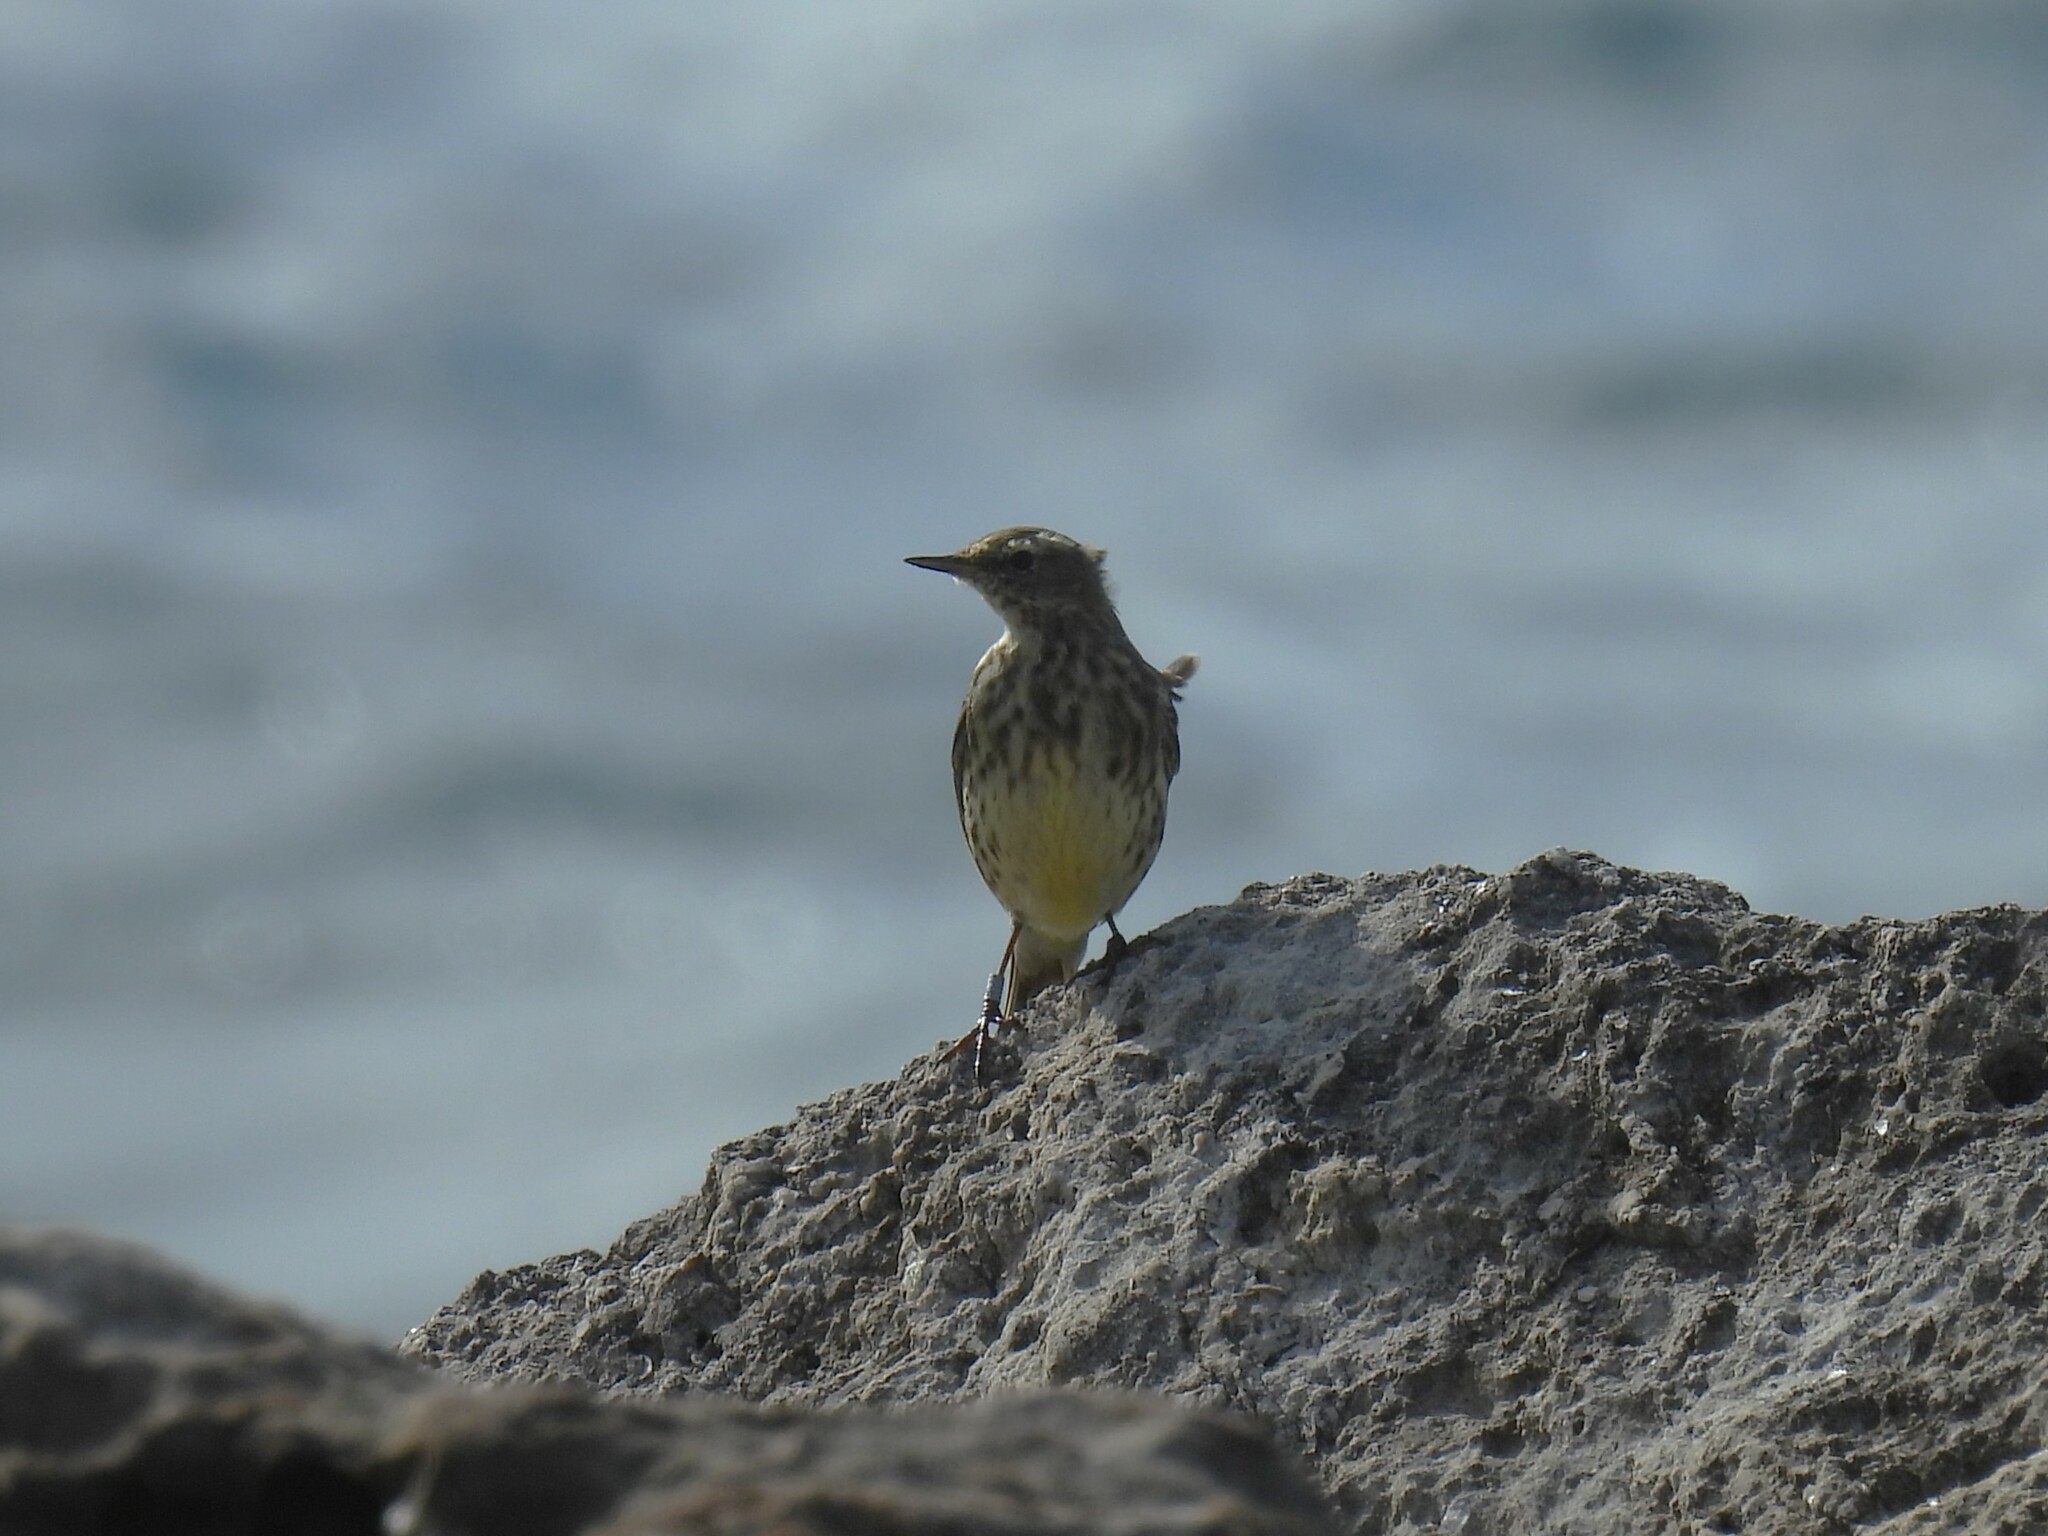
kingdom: Animalia
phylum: Chordata
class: Aves
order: Passeriformes
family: Motacillidae
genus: Anthus
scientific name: Anthus petrosus
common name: Eurasian rock pipit
